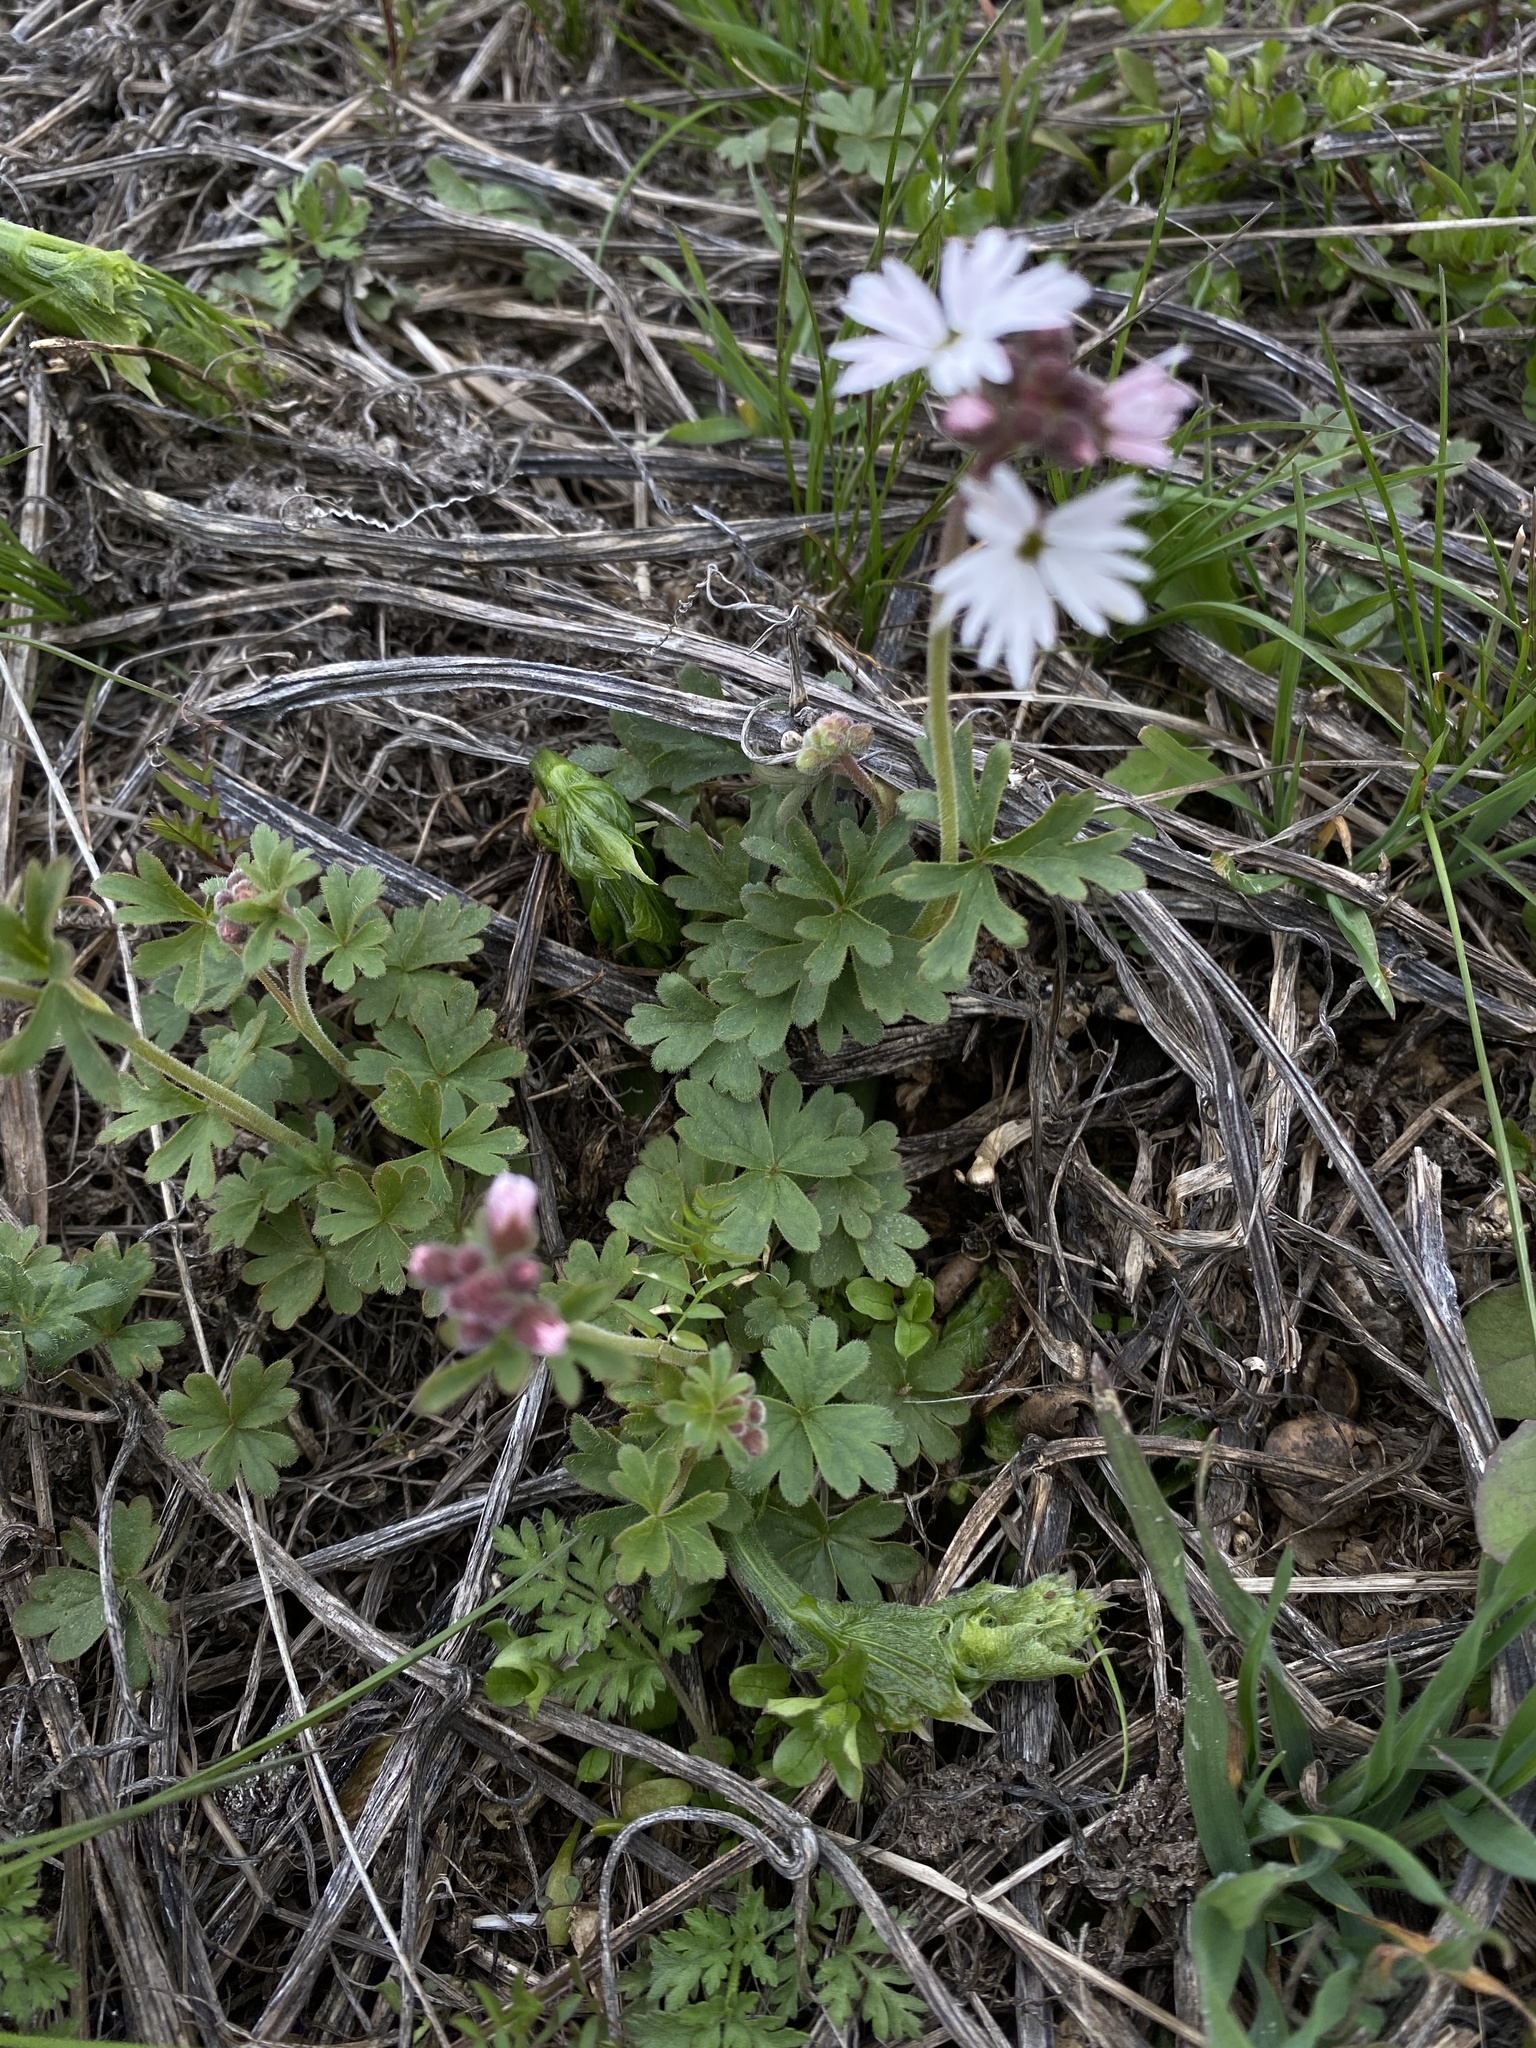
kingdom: Plantae
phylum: Tracheophyta
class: Magnoliopsida
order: Saxifragales
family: Saxifragaceae
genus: Lithophragma
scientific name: Lithophragma parviflorum
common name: Small-flowered fringe-cup
